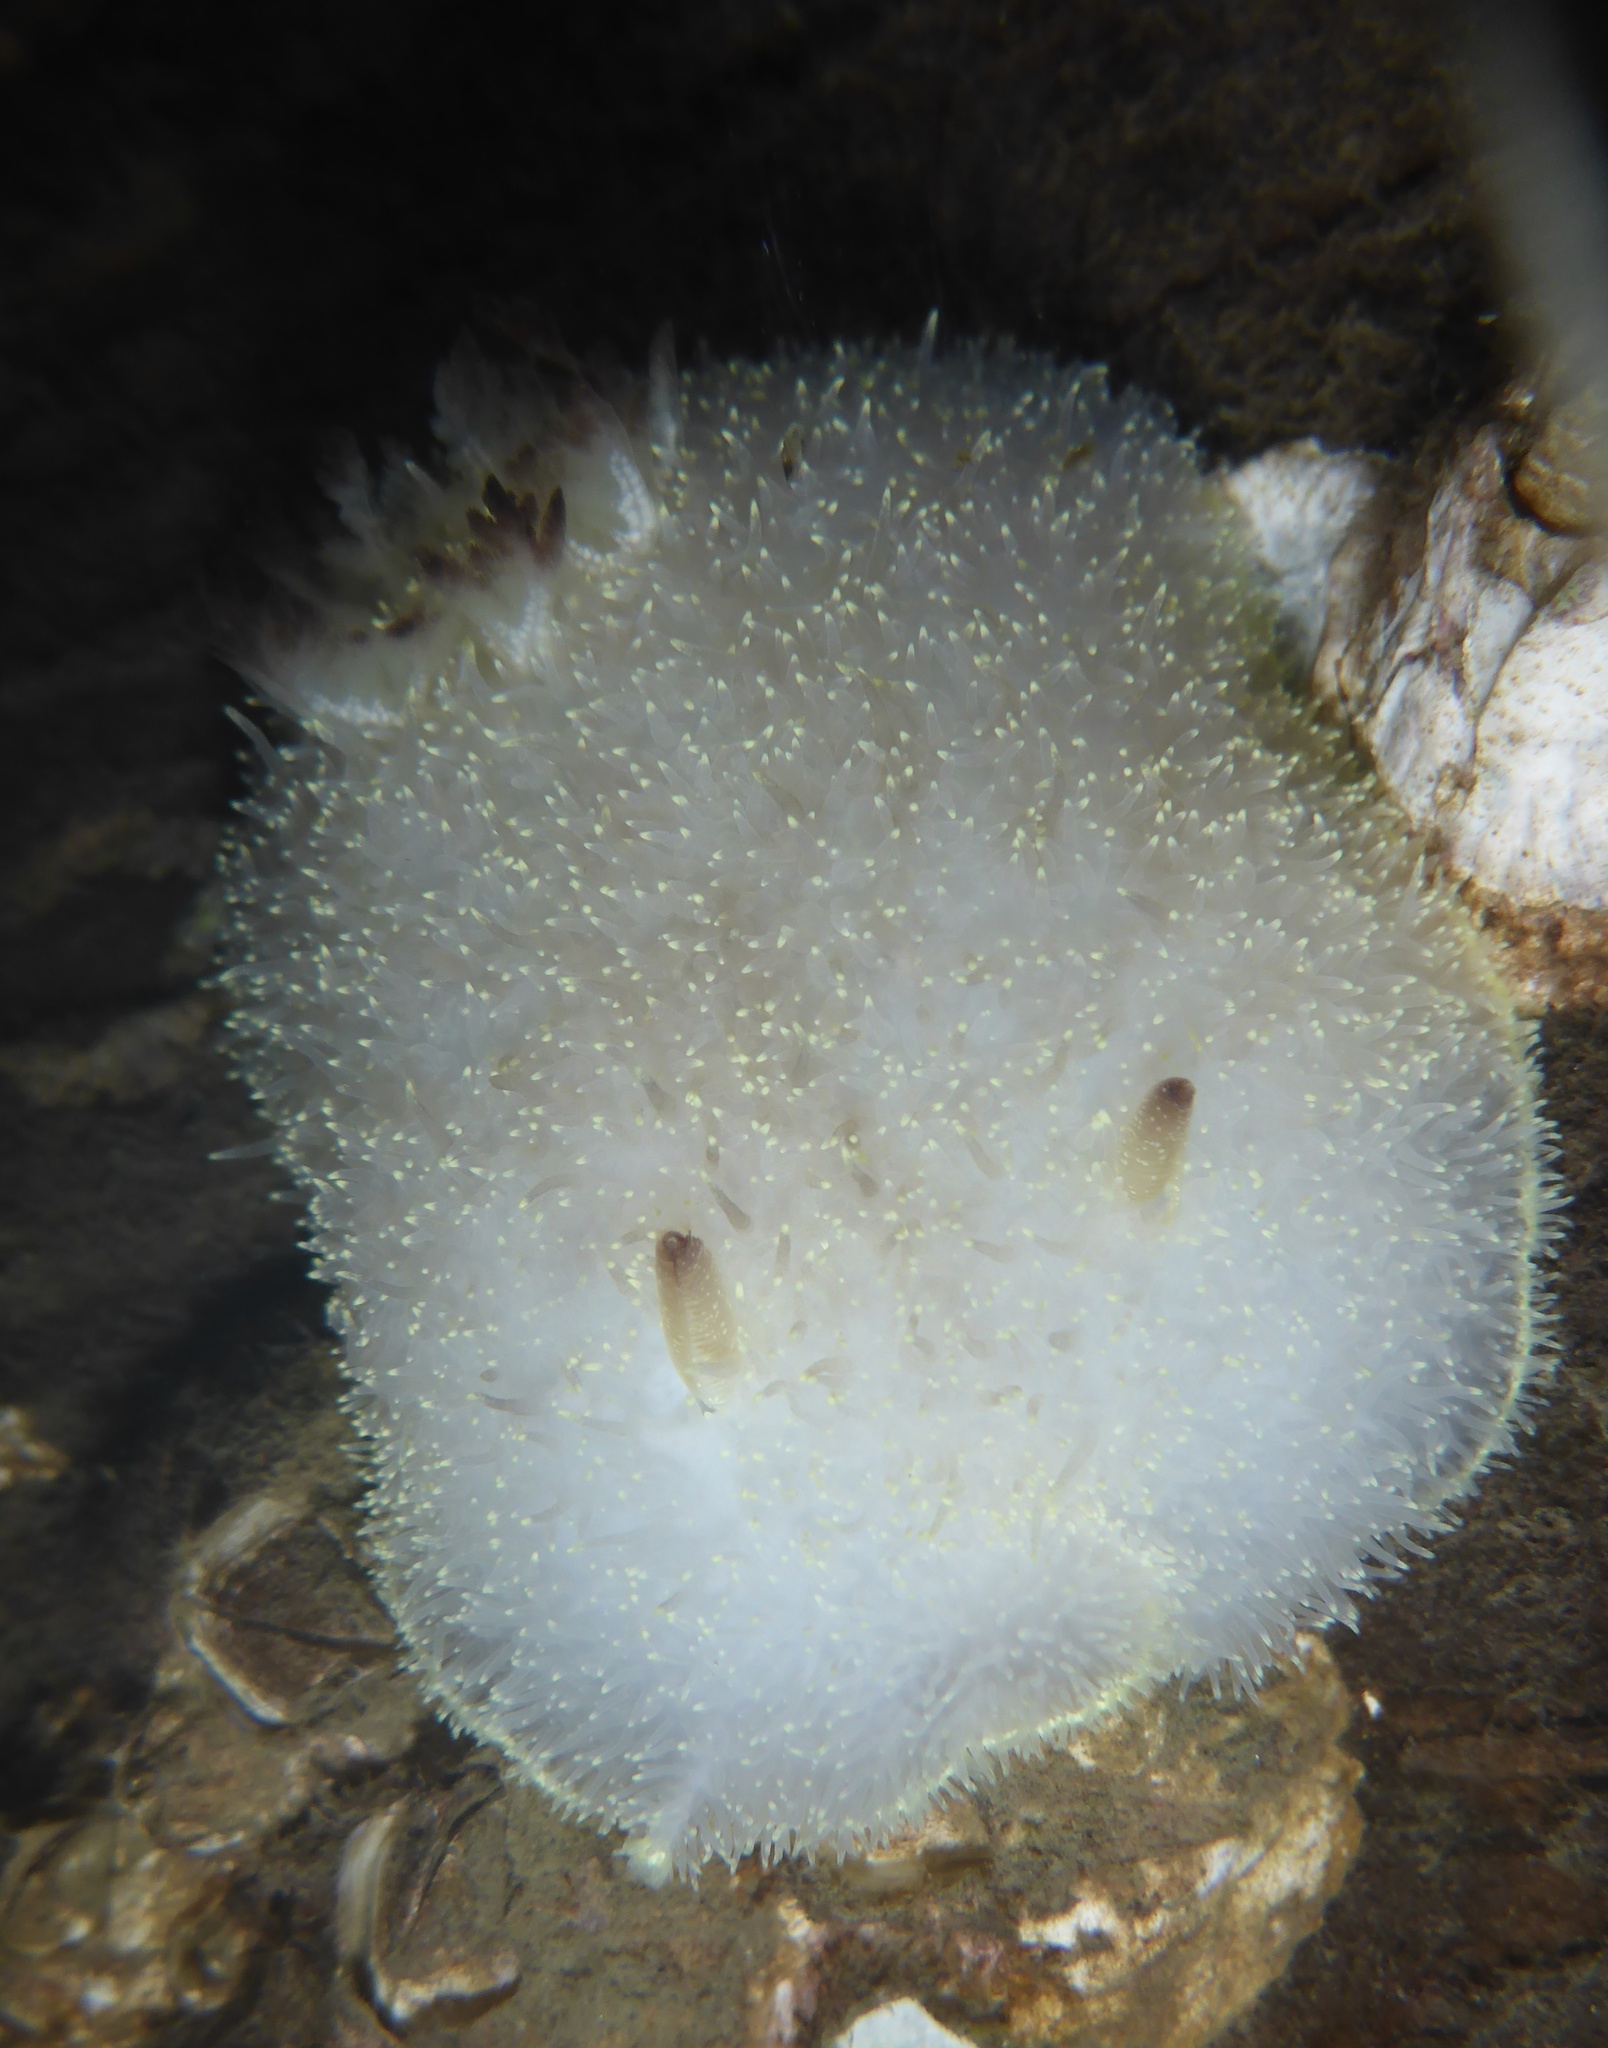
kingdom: Animalia
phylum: Mollusca
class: Gastropoda
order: Nudibranchia
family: Onchidorididae
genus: Acanthodoris
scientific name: Acanthodoris nanaimoensis
